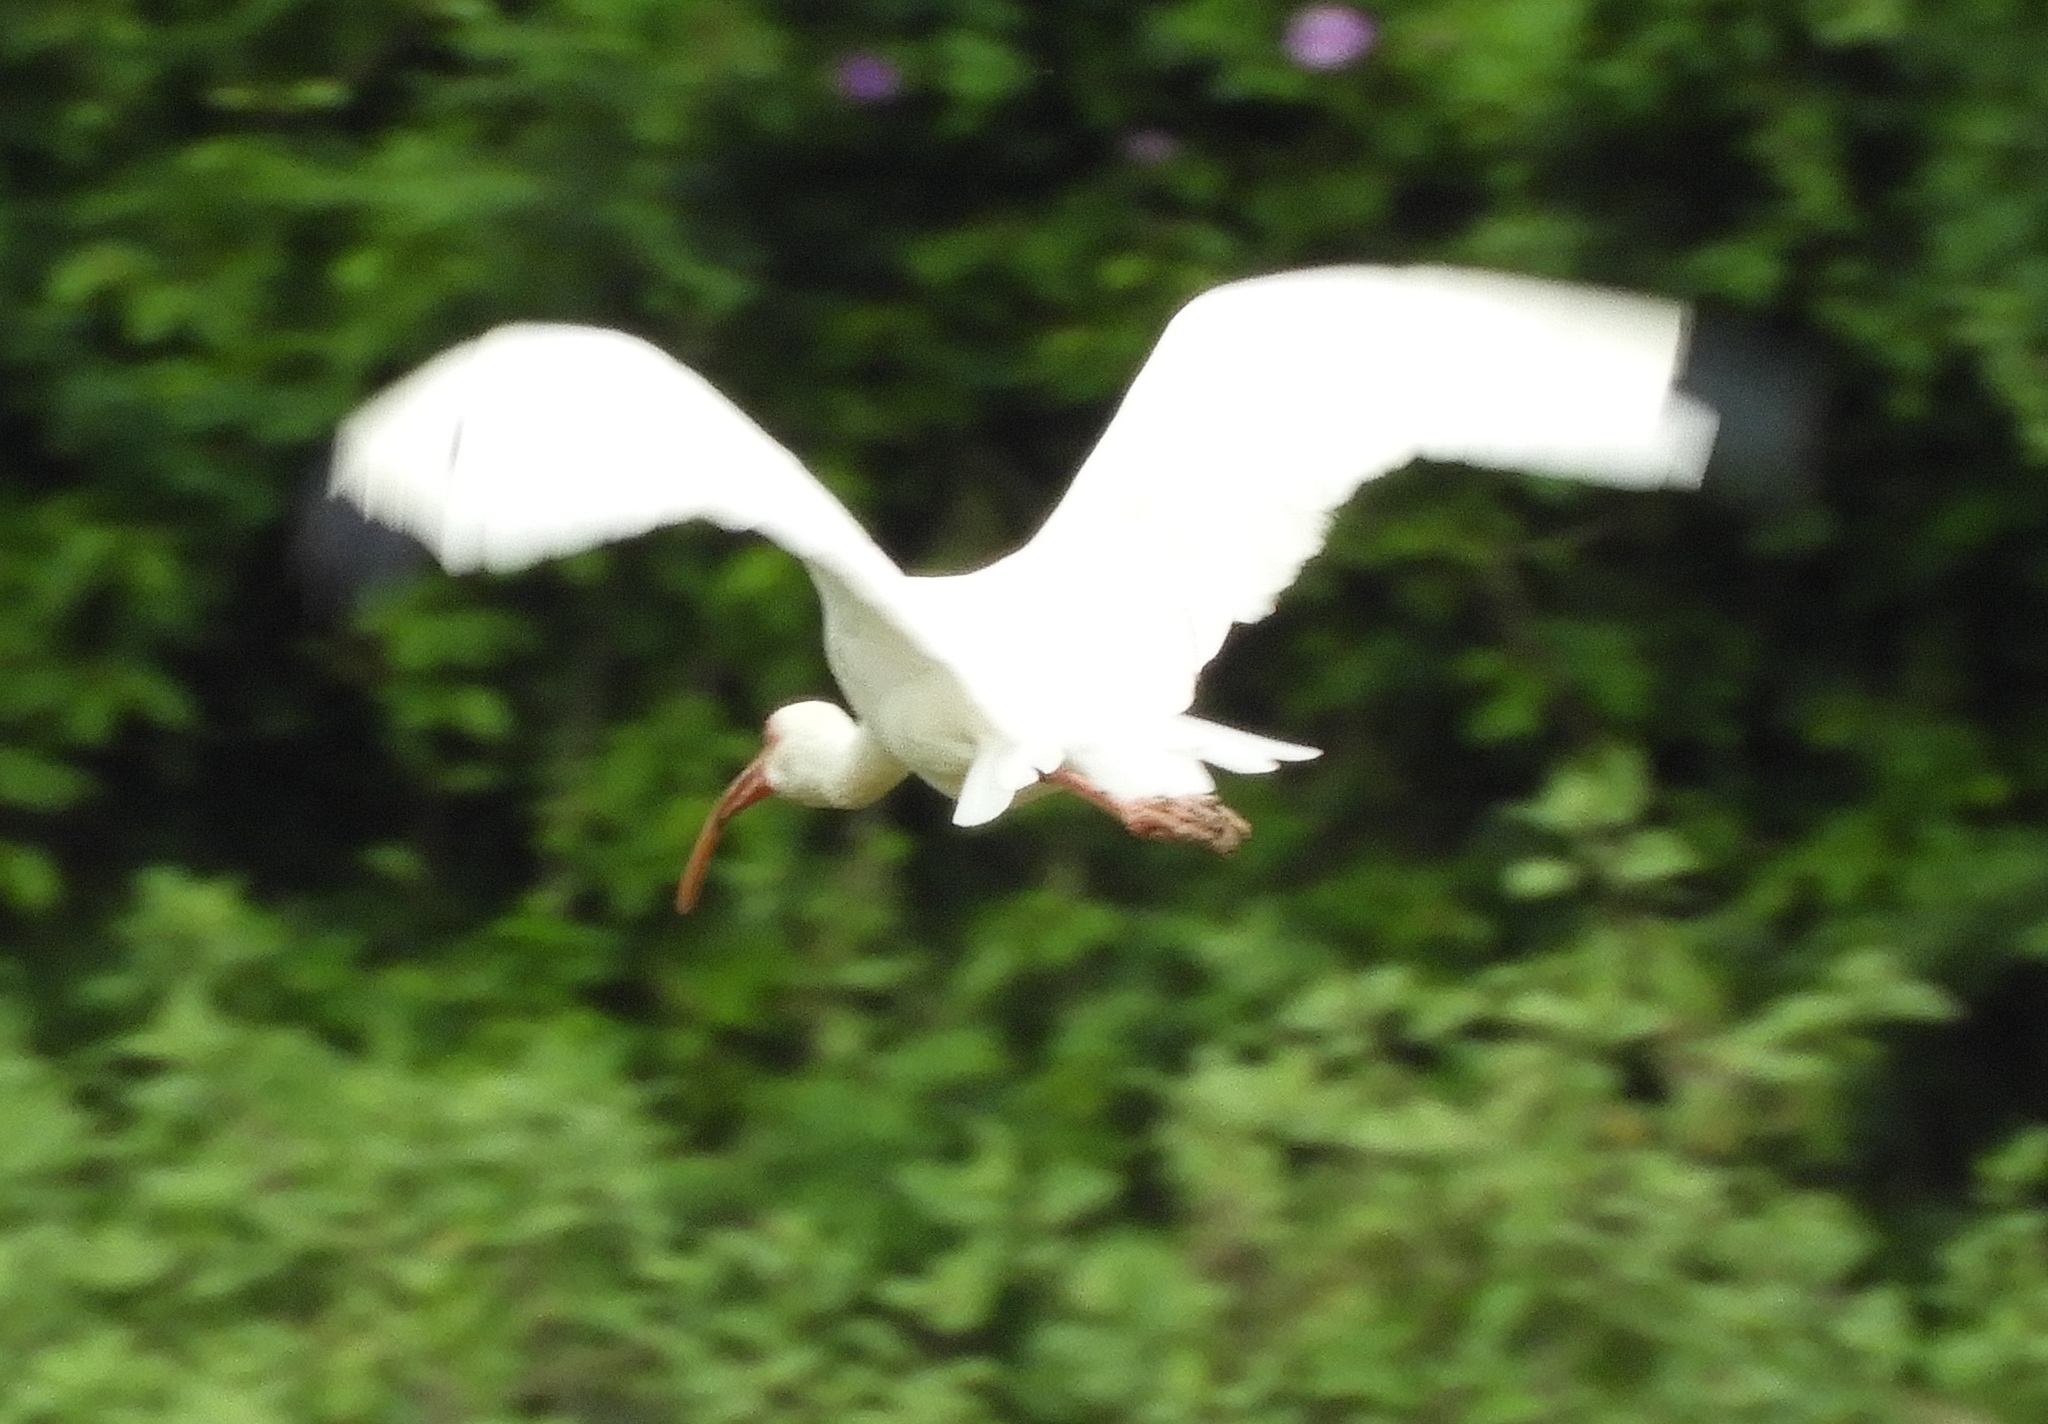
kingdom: Animalia
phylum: Chordata
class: Aves
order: Pelecaniformes
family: Threskiornithidae
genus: Eudocimus
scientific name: Eudocimus albus
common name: White ibis
